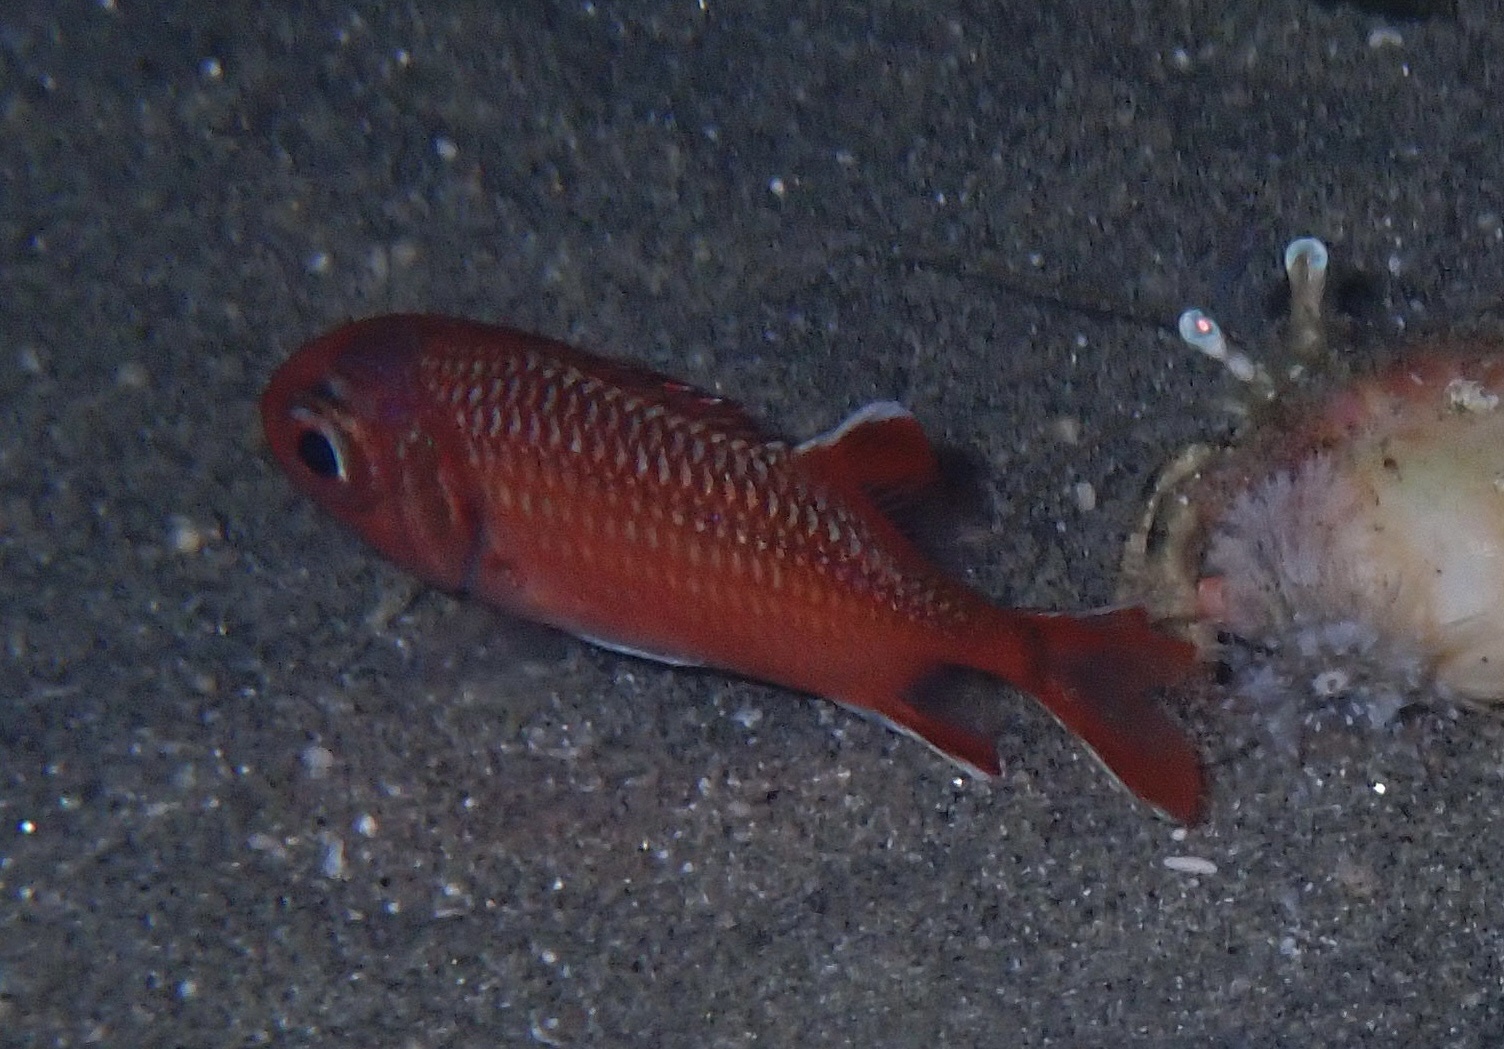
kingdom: Animalia
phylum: Chordata
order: Beryciformes
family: Holocentridae
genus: Myripristis
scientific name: Myripristis murdjan
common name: Big-eye soldierfish
